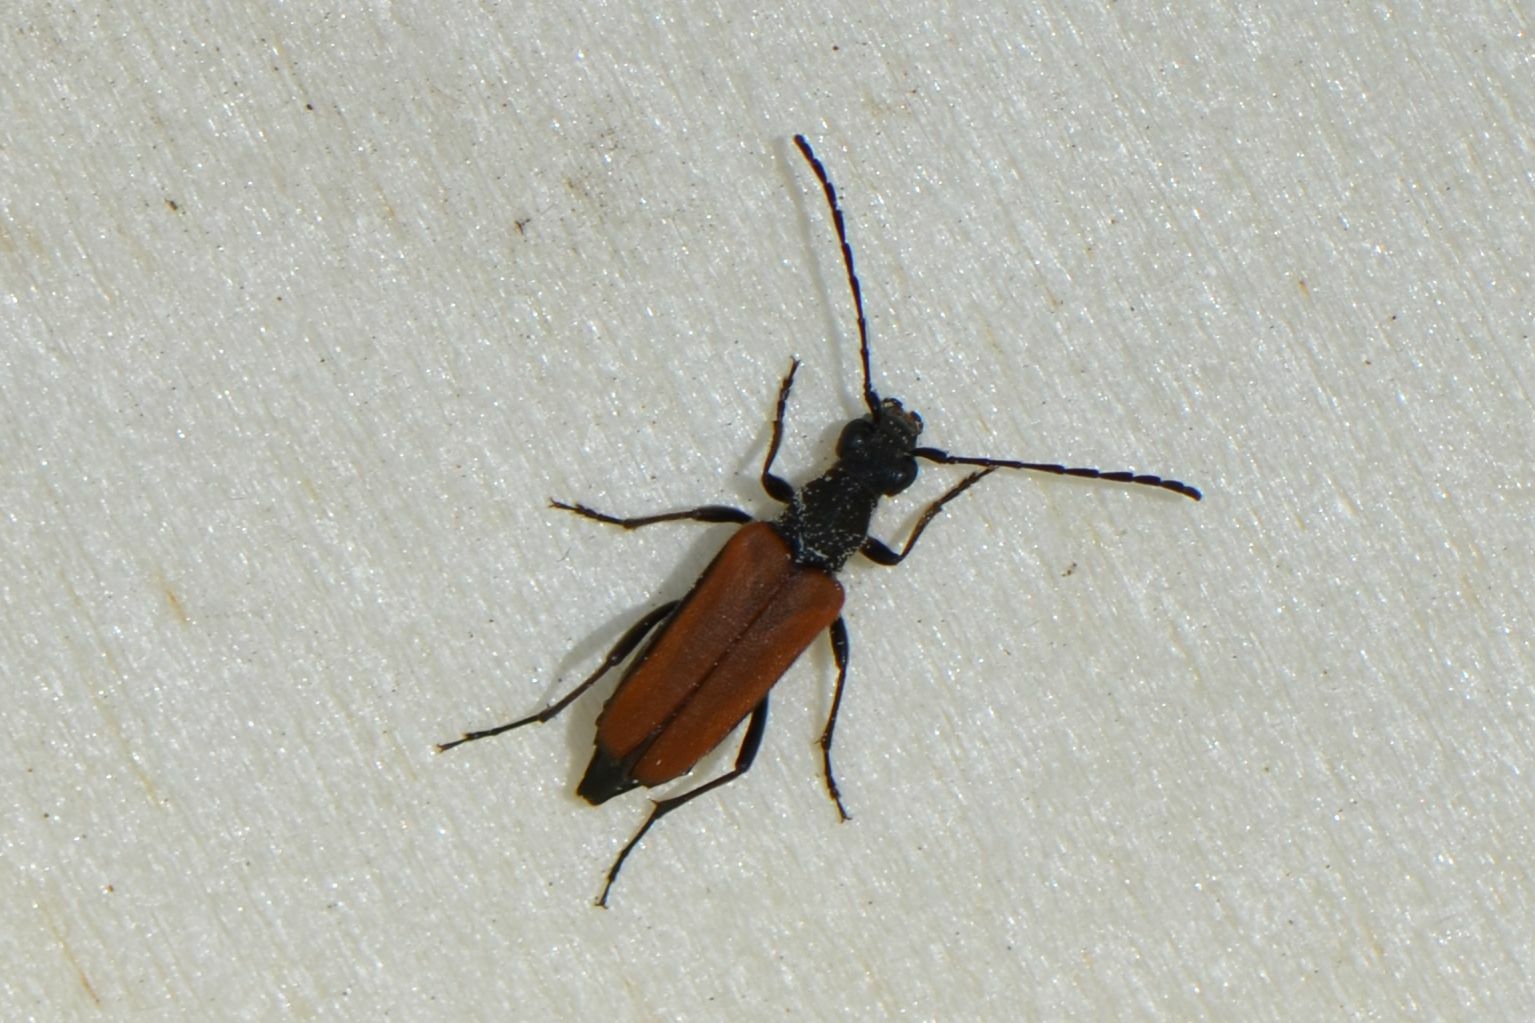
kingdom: Animalia
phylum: Arthropoda
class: Insecta
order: Coleoptera
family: Cerambycidae
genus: Anastrangalia
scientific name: Anastrangalia dubia
